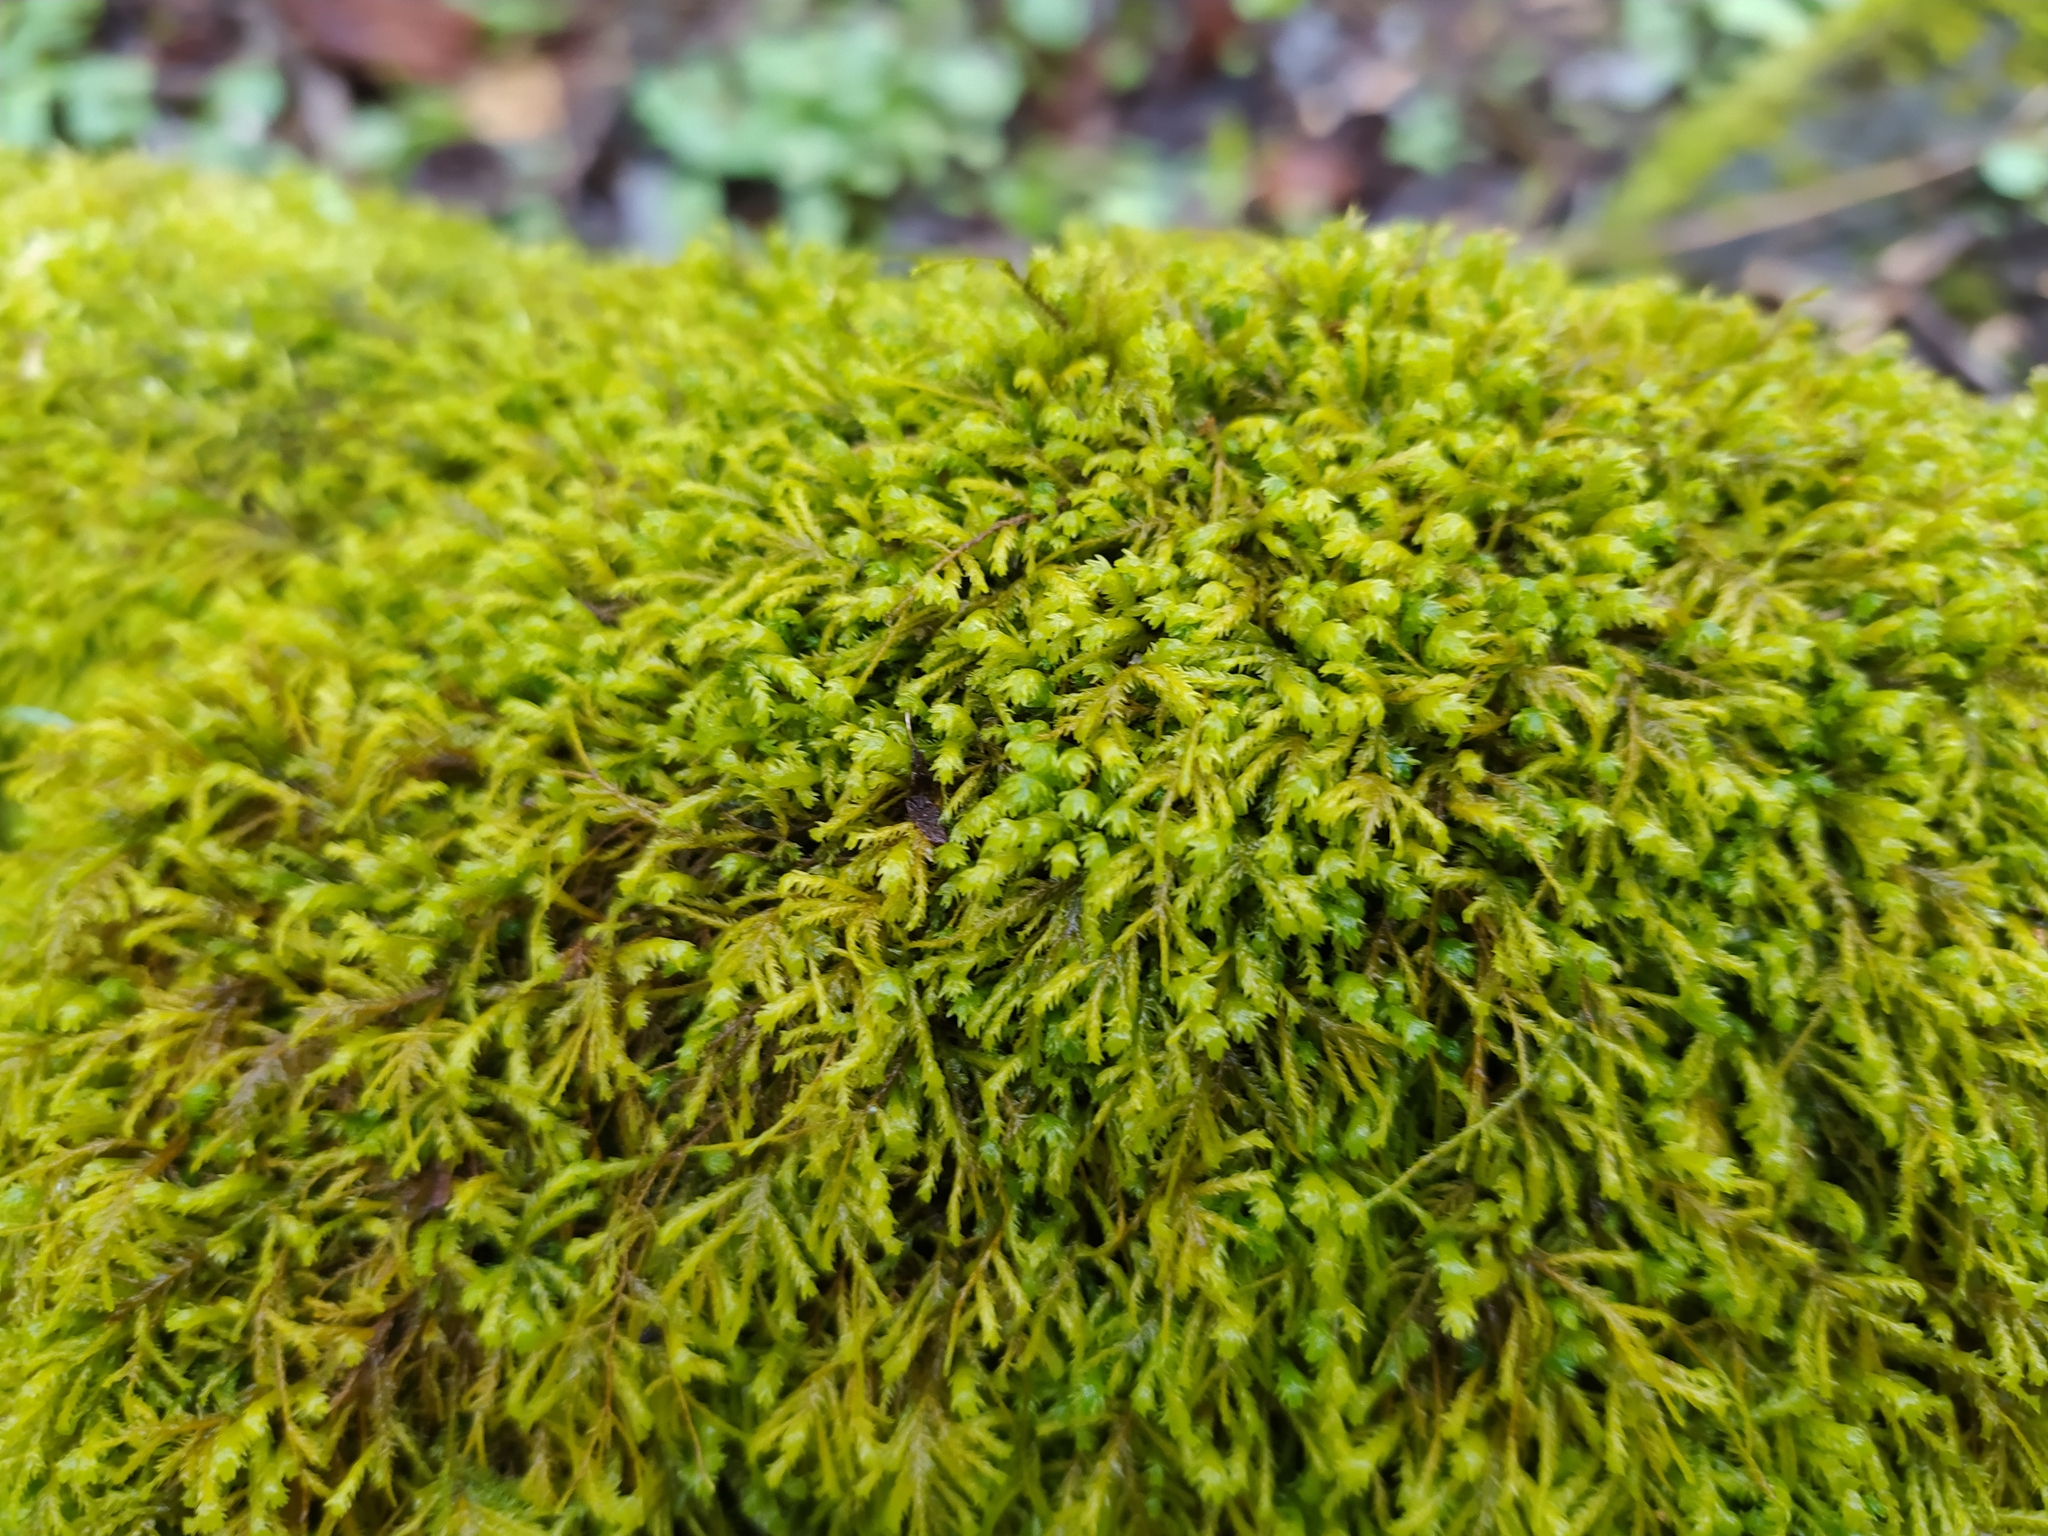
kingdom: Plantae
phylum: Bryophyta
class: Bryopsida
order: Hypnales
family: Neckeraceae
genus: Pseudanomodon
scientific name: Pseudanomodon attenuatus
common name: Tree-skirt moss
